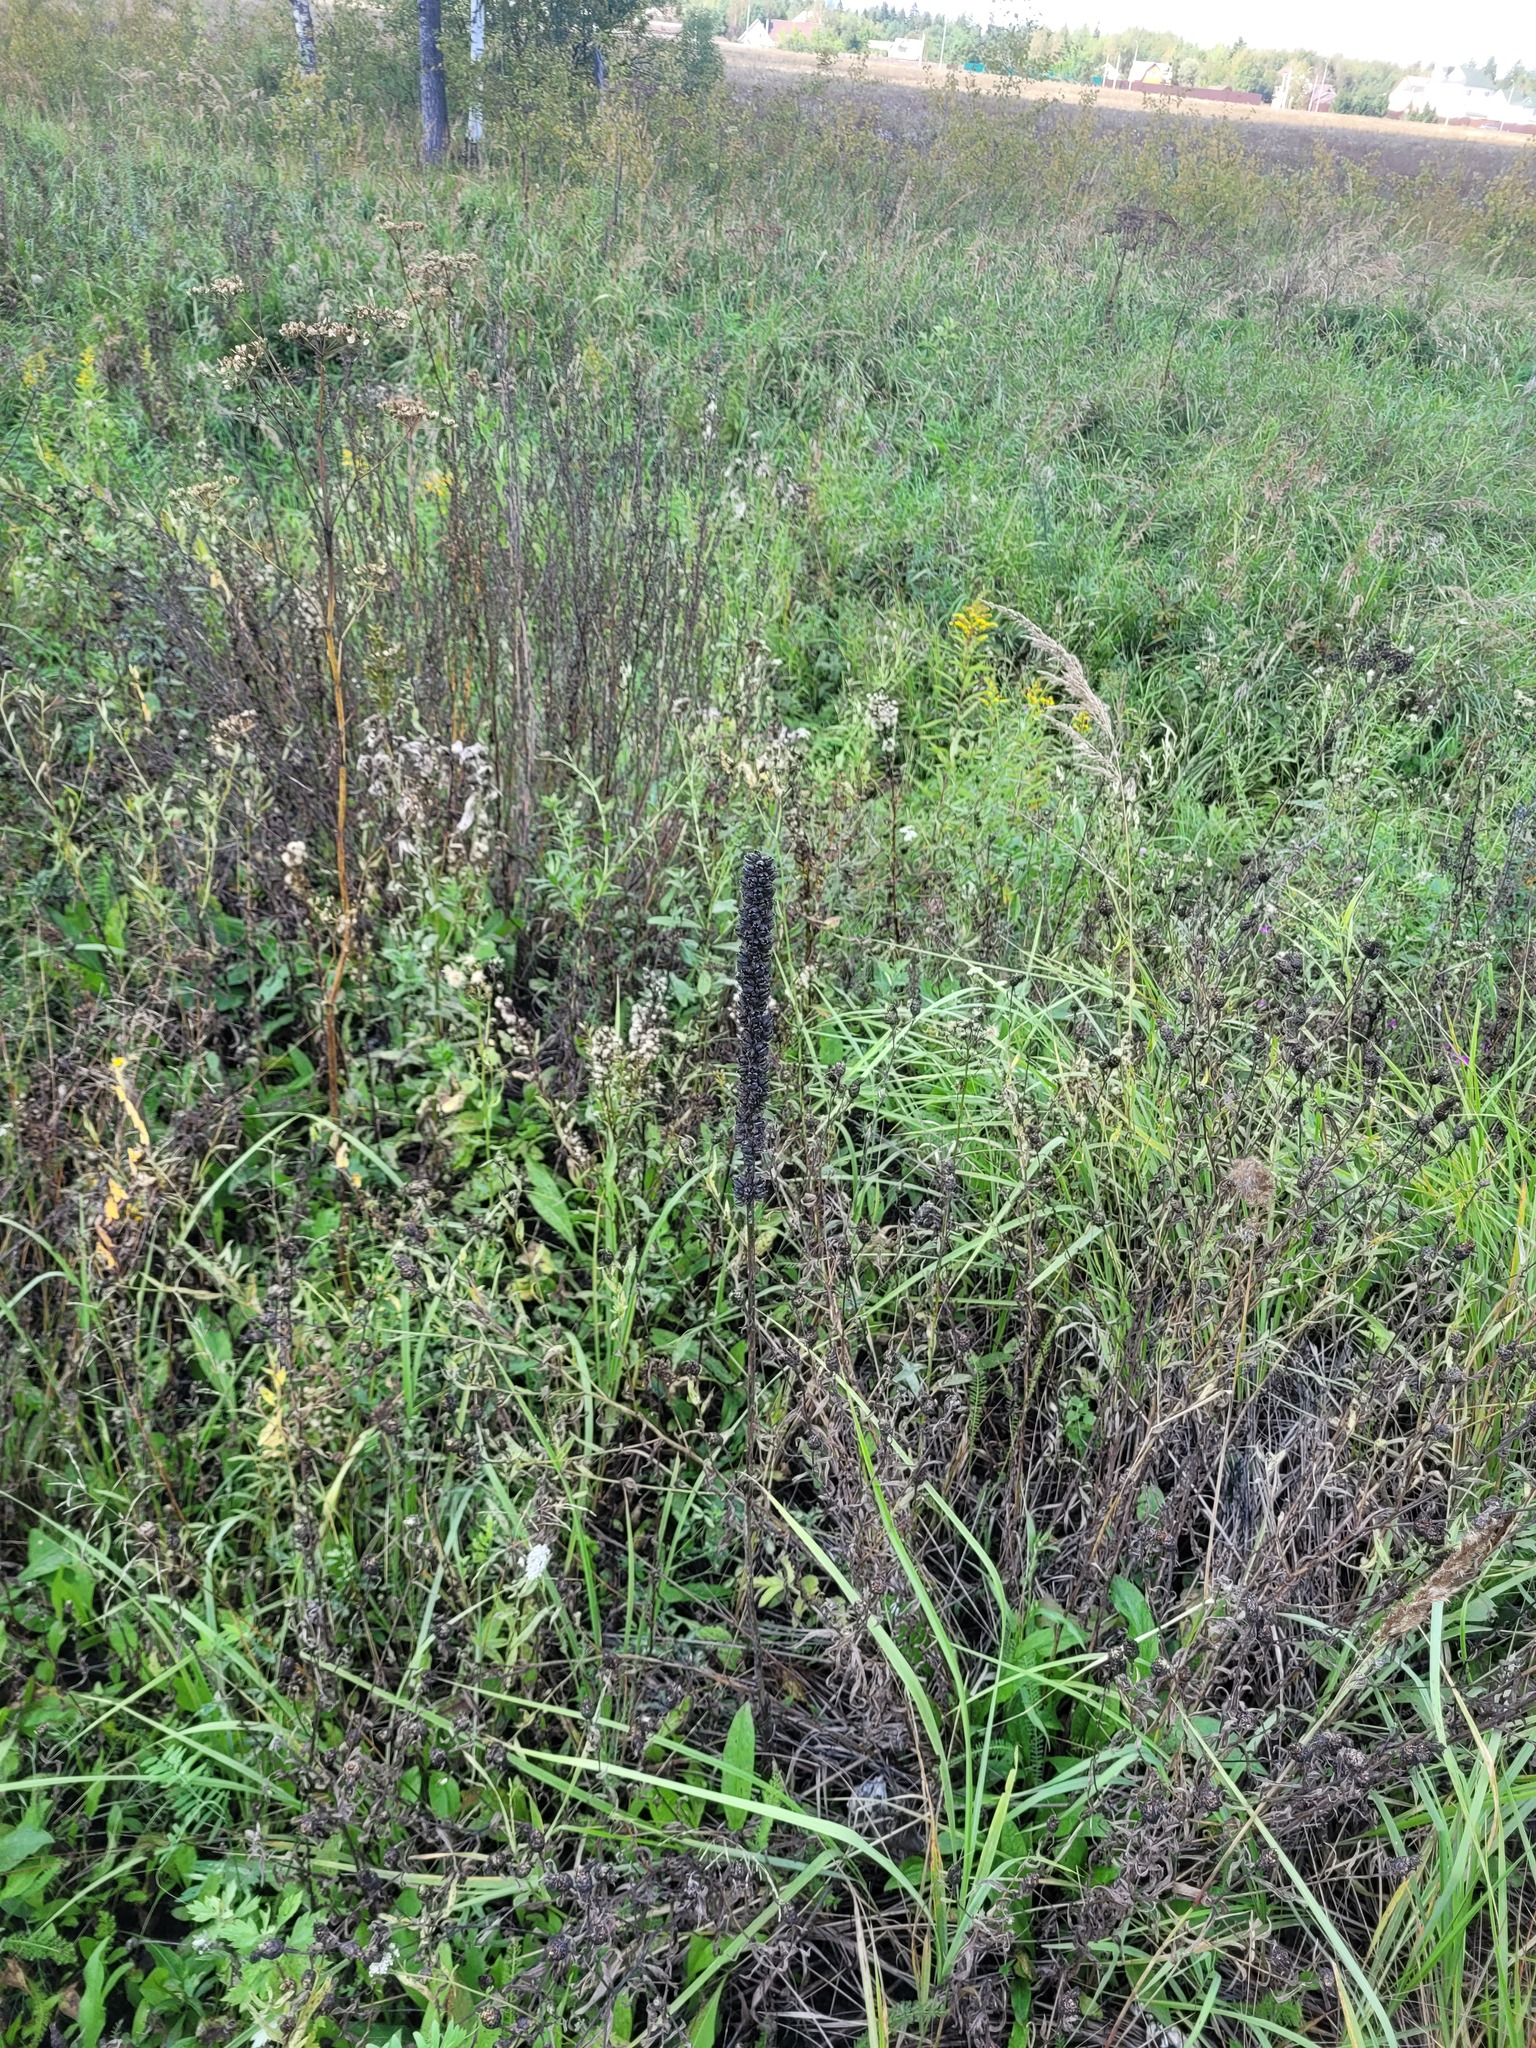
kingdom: Plantae
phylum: Tracheophyta
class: Magnoliopsida
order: Lamiales
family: Scrophulariaceae
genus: Verbascum
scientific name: Verbascum thapsus
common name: Common mullein
